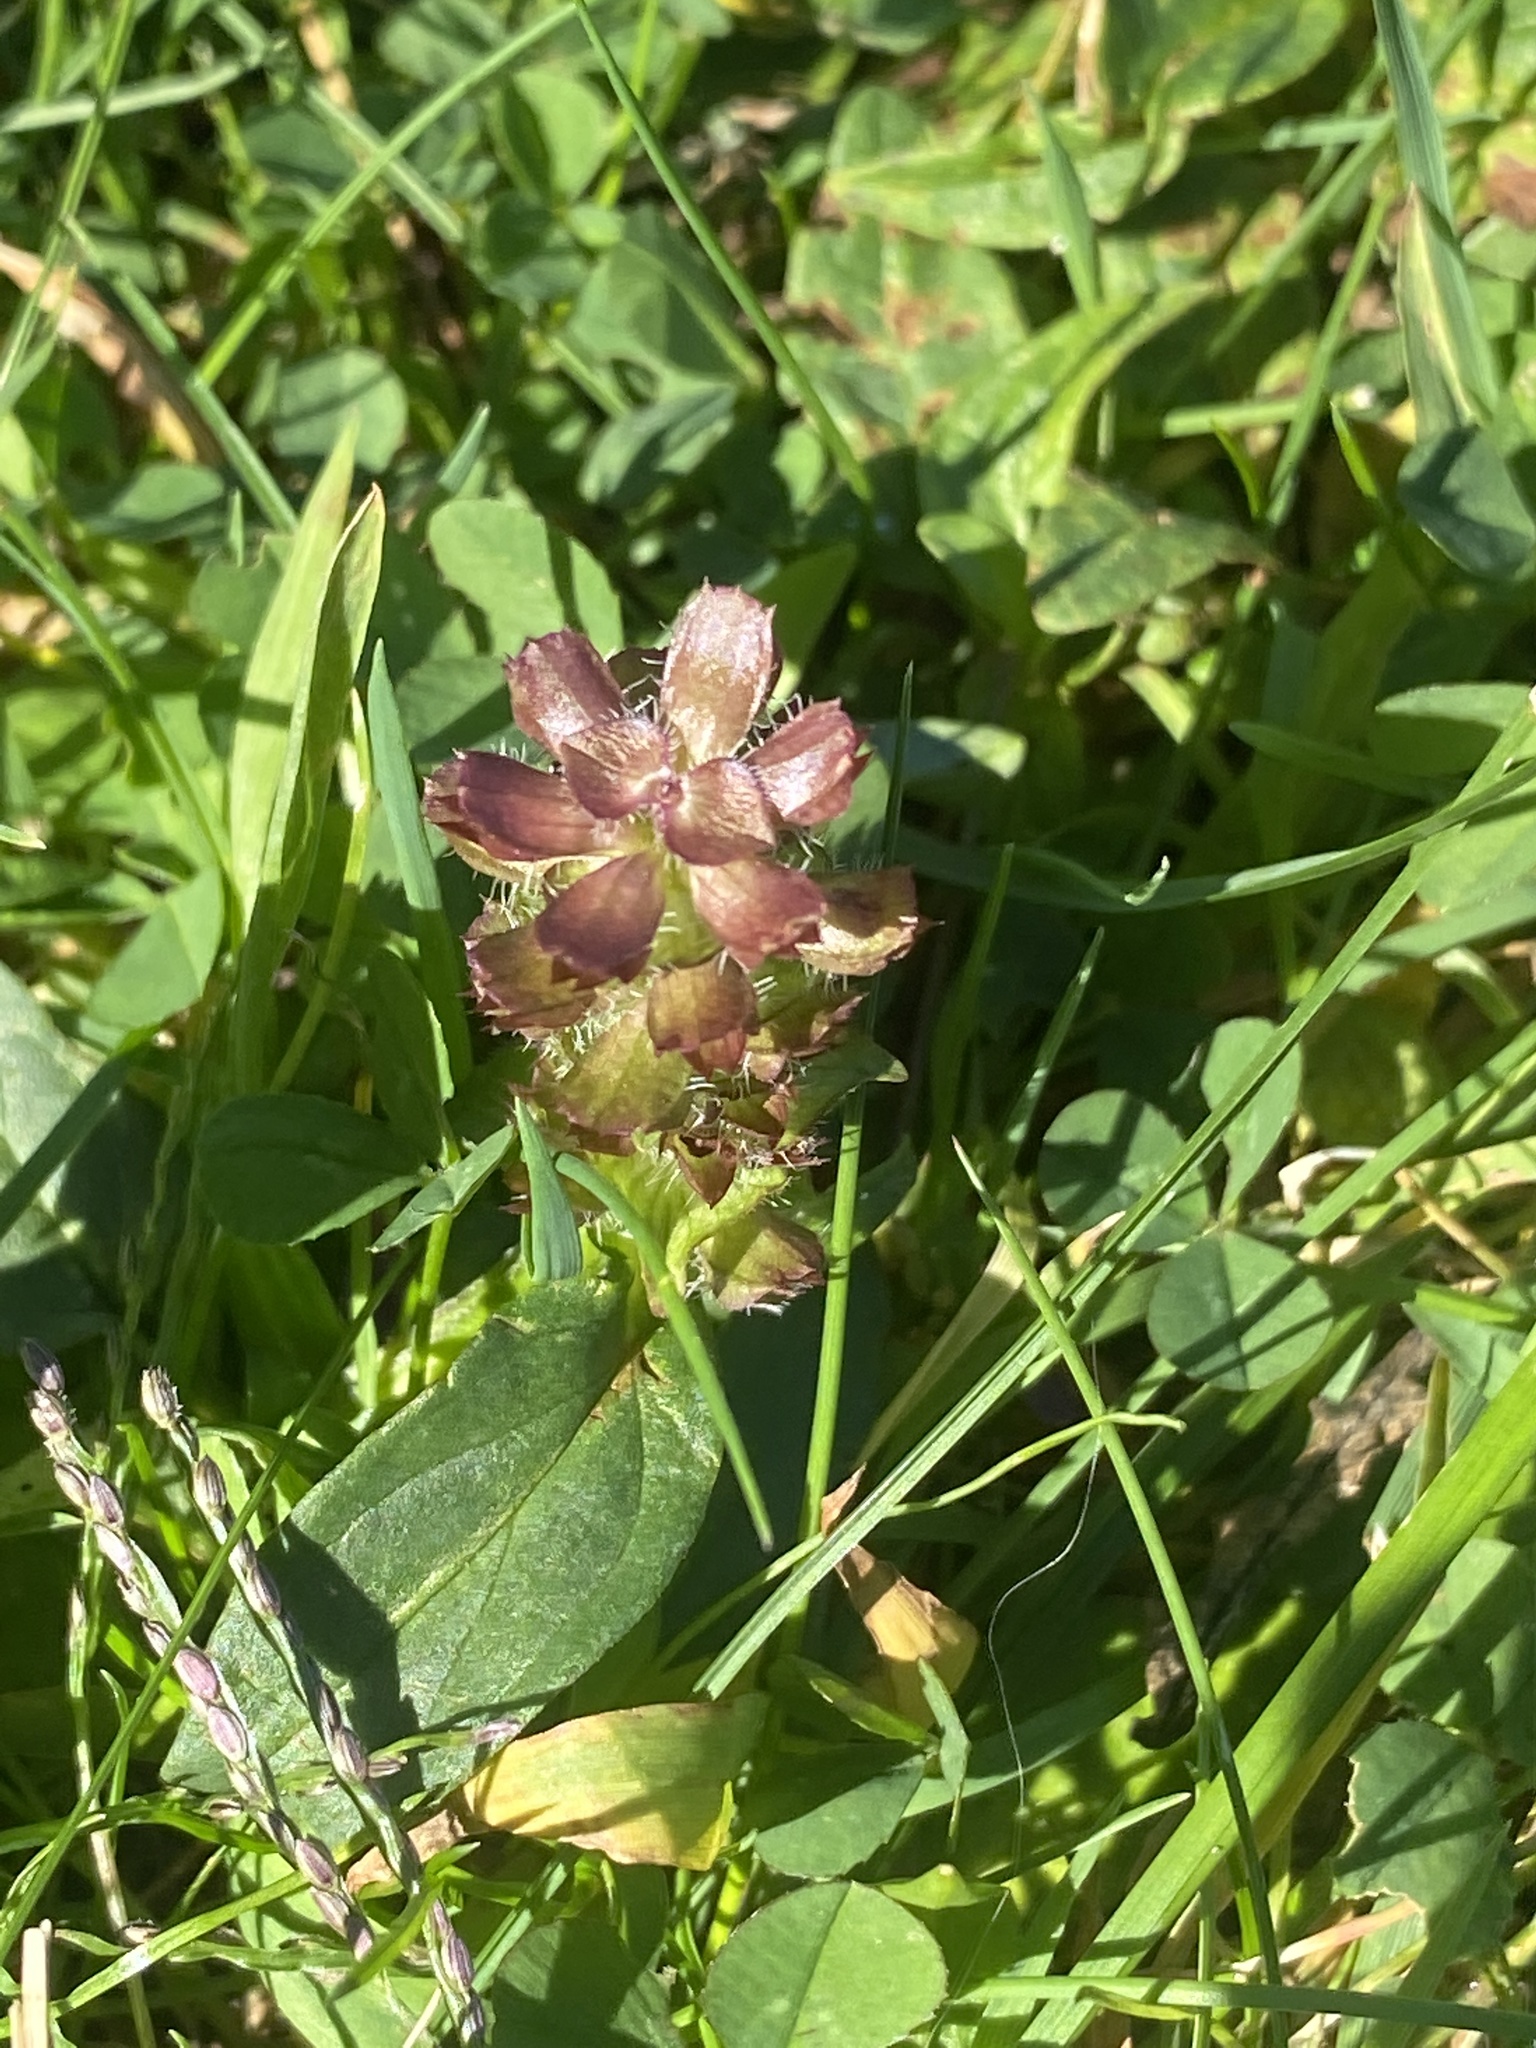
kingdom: Plantae
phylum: Tracheophyta
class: Magnoliopsida
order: Lamiales
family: Lamiaceae
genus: Prunella
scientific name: Prunella vulgaris
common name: Heal-all
